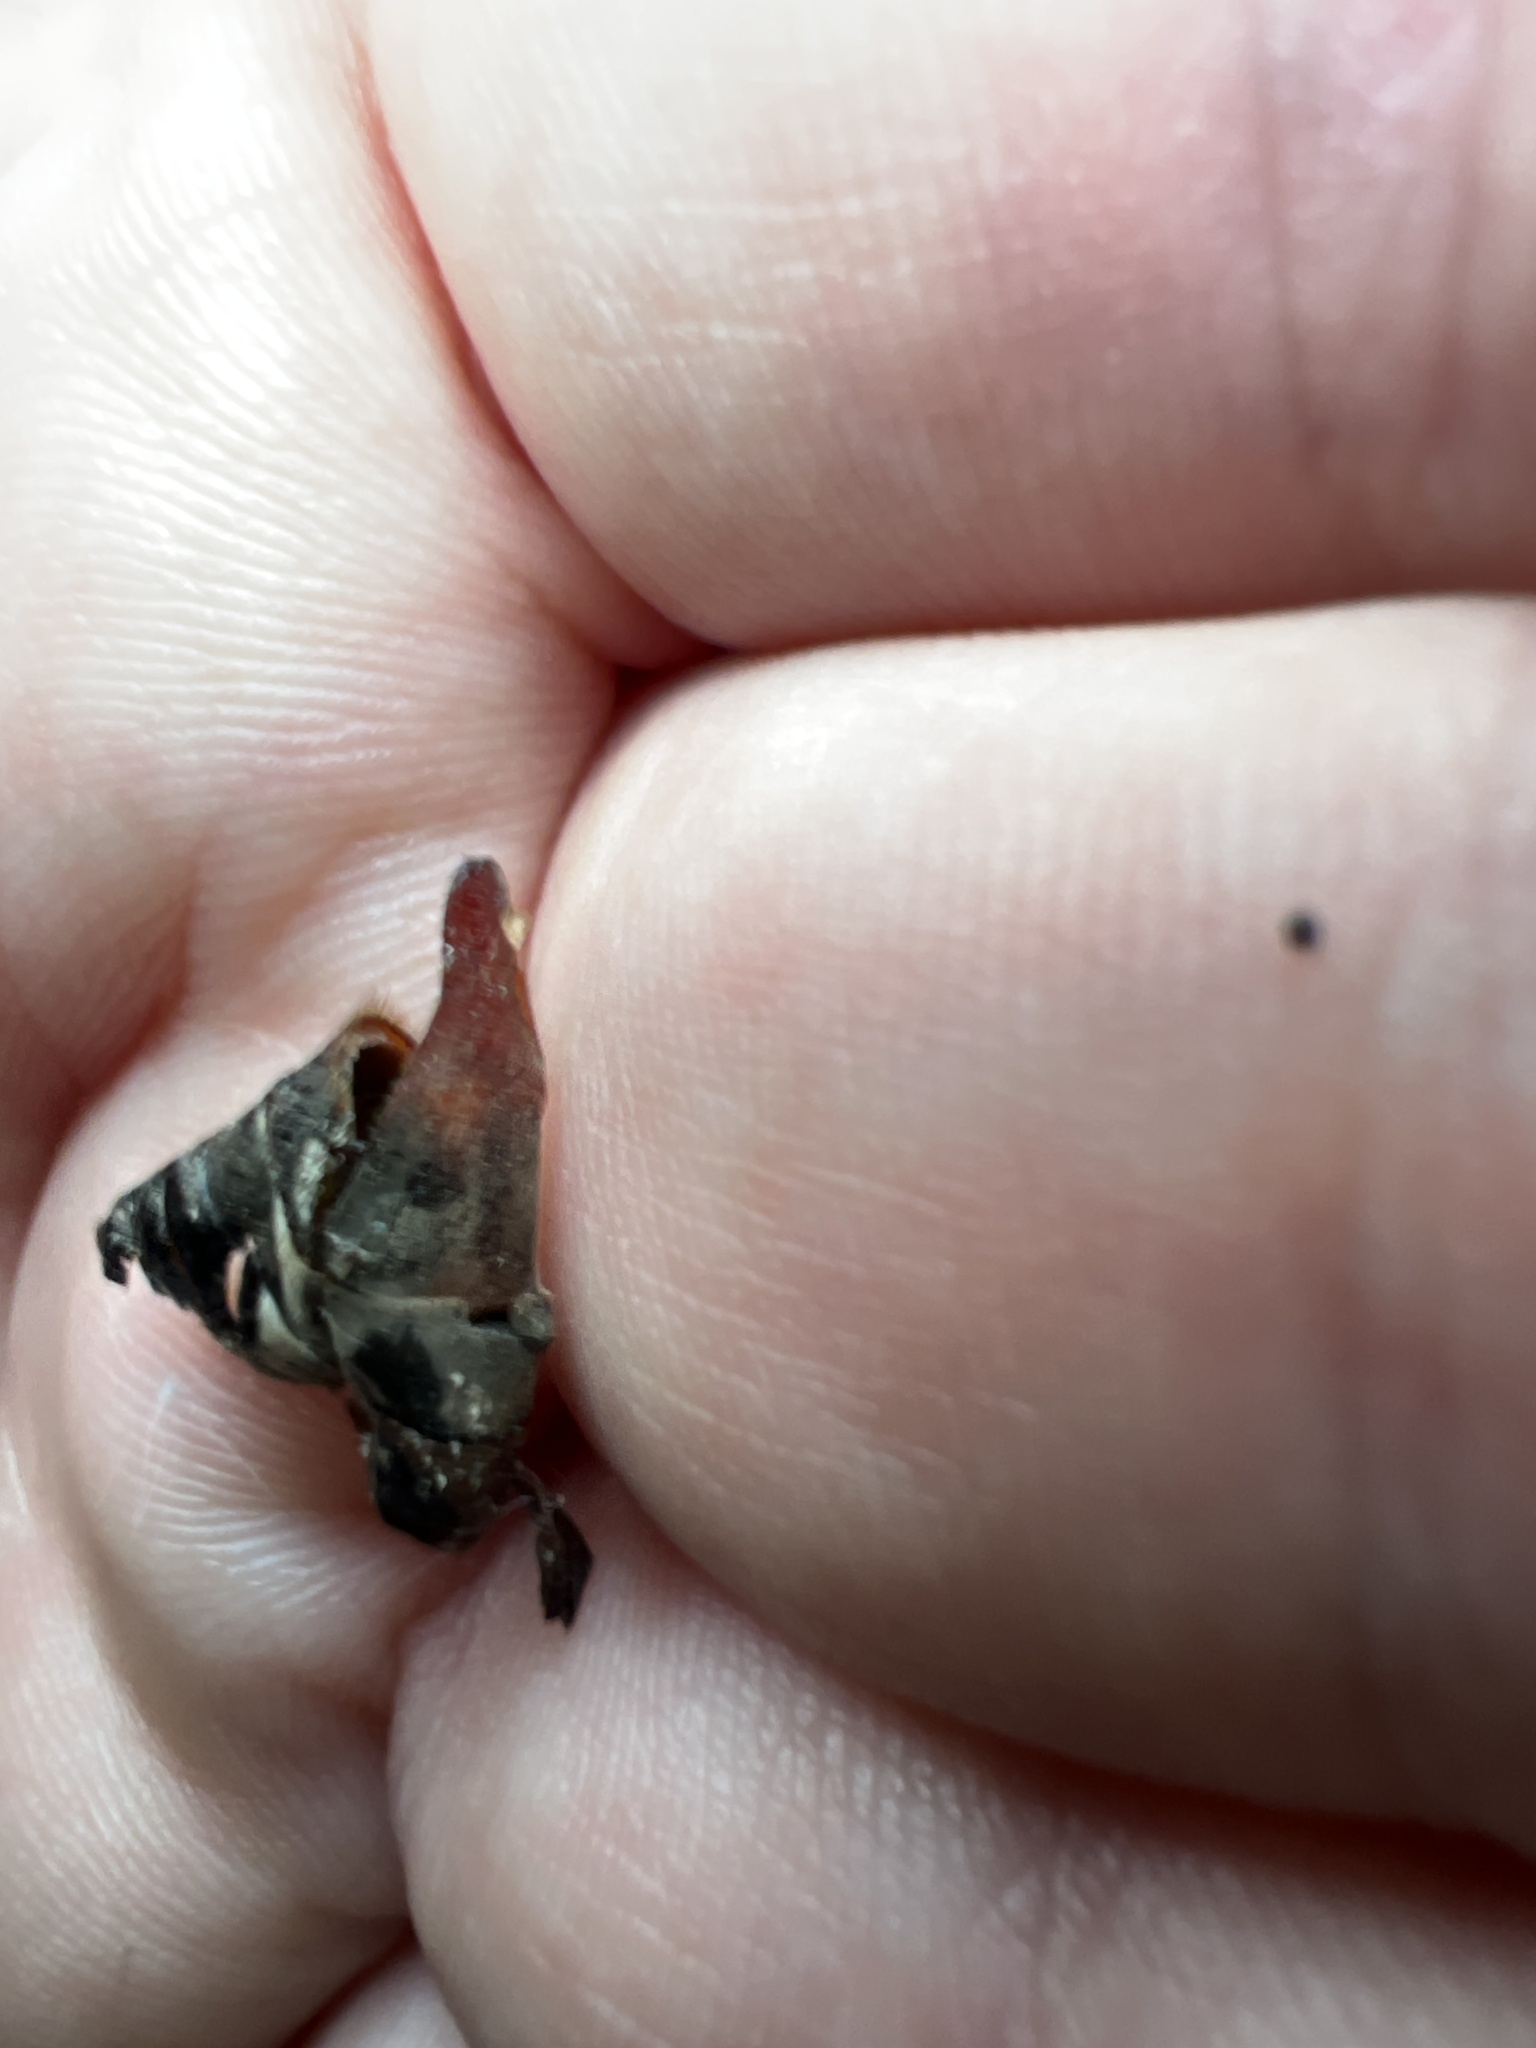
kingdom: Animalia
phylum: Arthropoda
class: Insecta
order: Coleoptera
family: Scarabaeidae
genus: Melolontha
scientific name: Melolontha melolontha
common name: Cockchafer maybeetle
